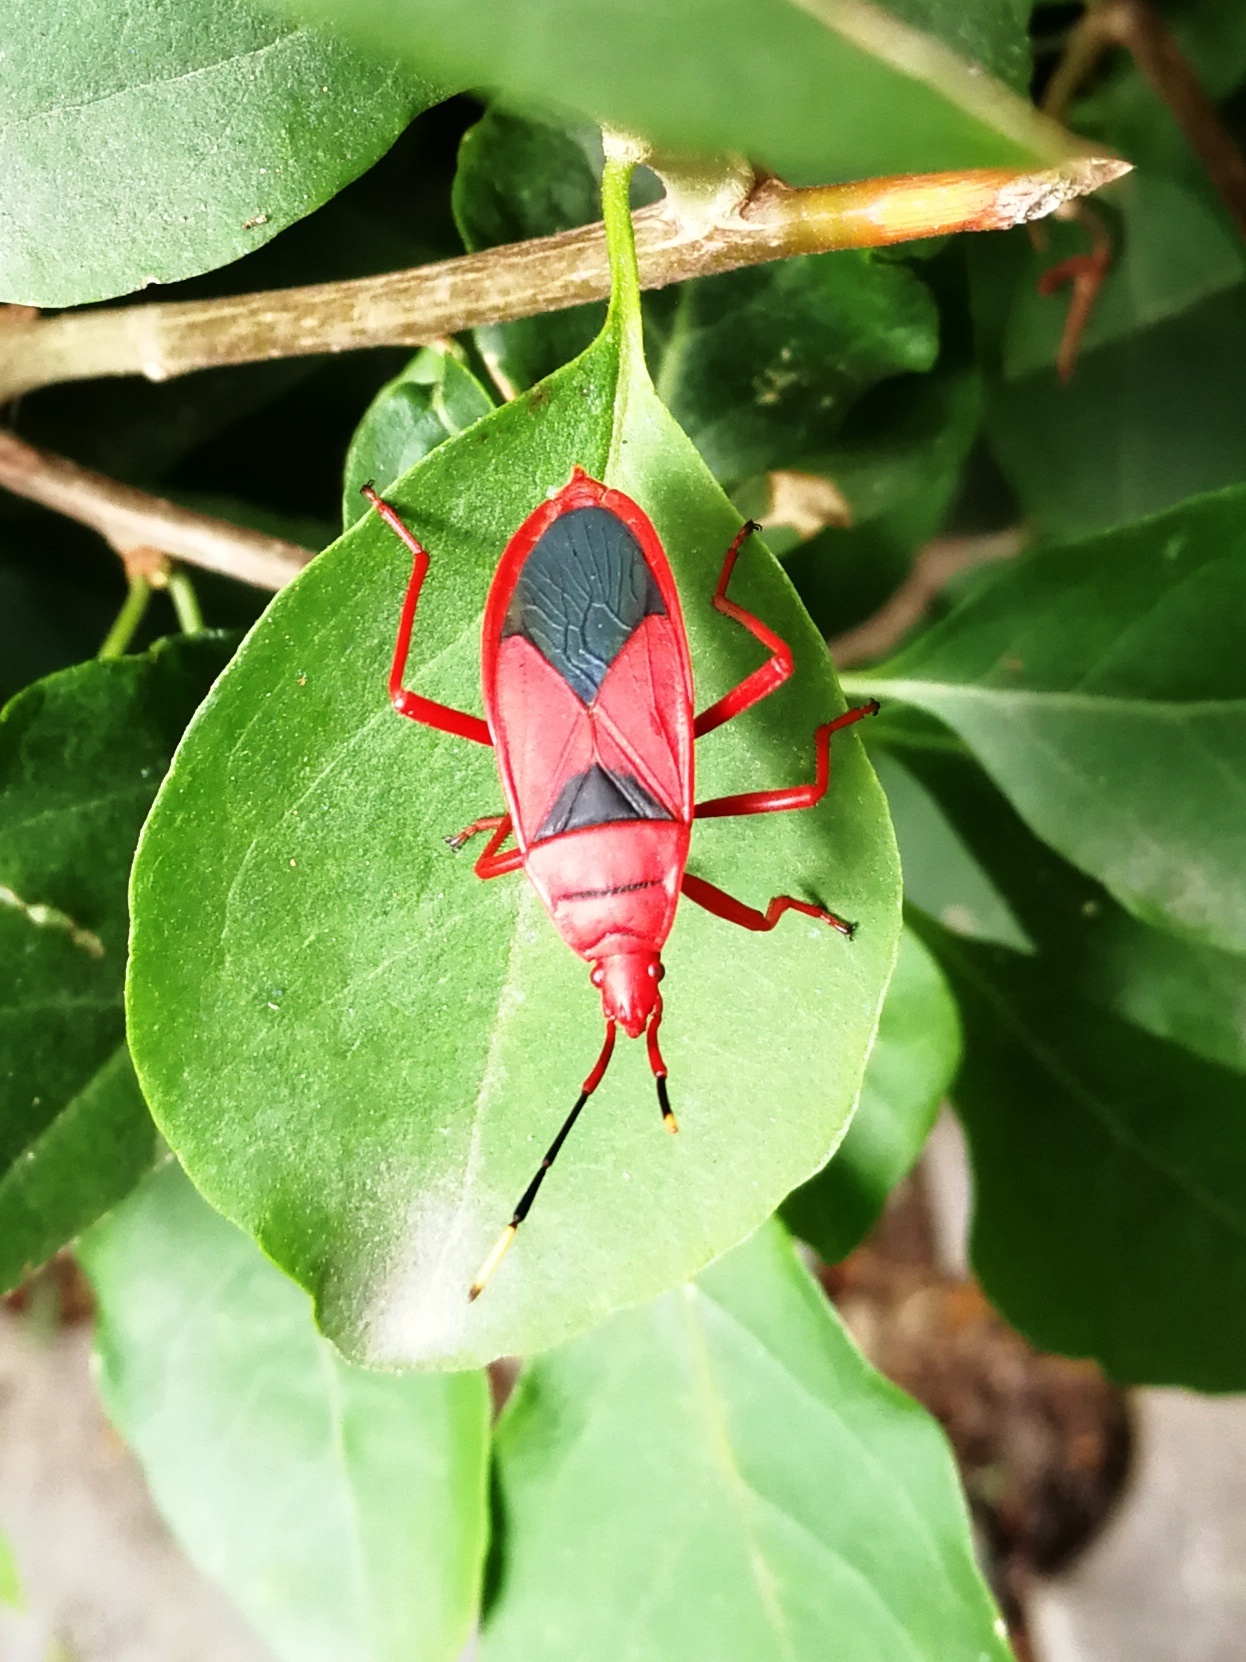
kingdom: Animalia
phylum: Arthropoda
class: Insecta
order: Hemiptera
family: Pyrrhocoridae
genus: Probergrothius
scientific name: Probergrothius
